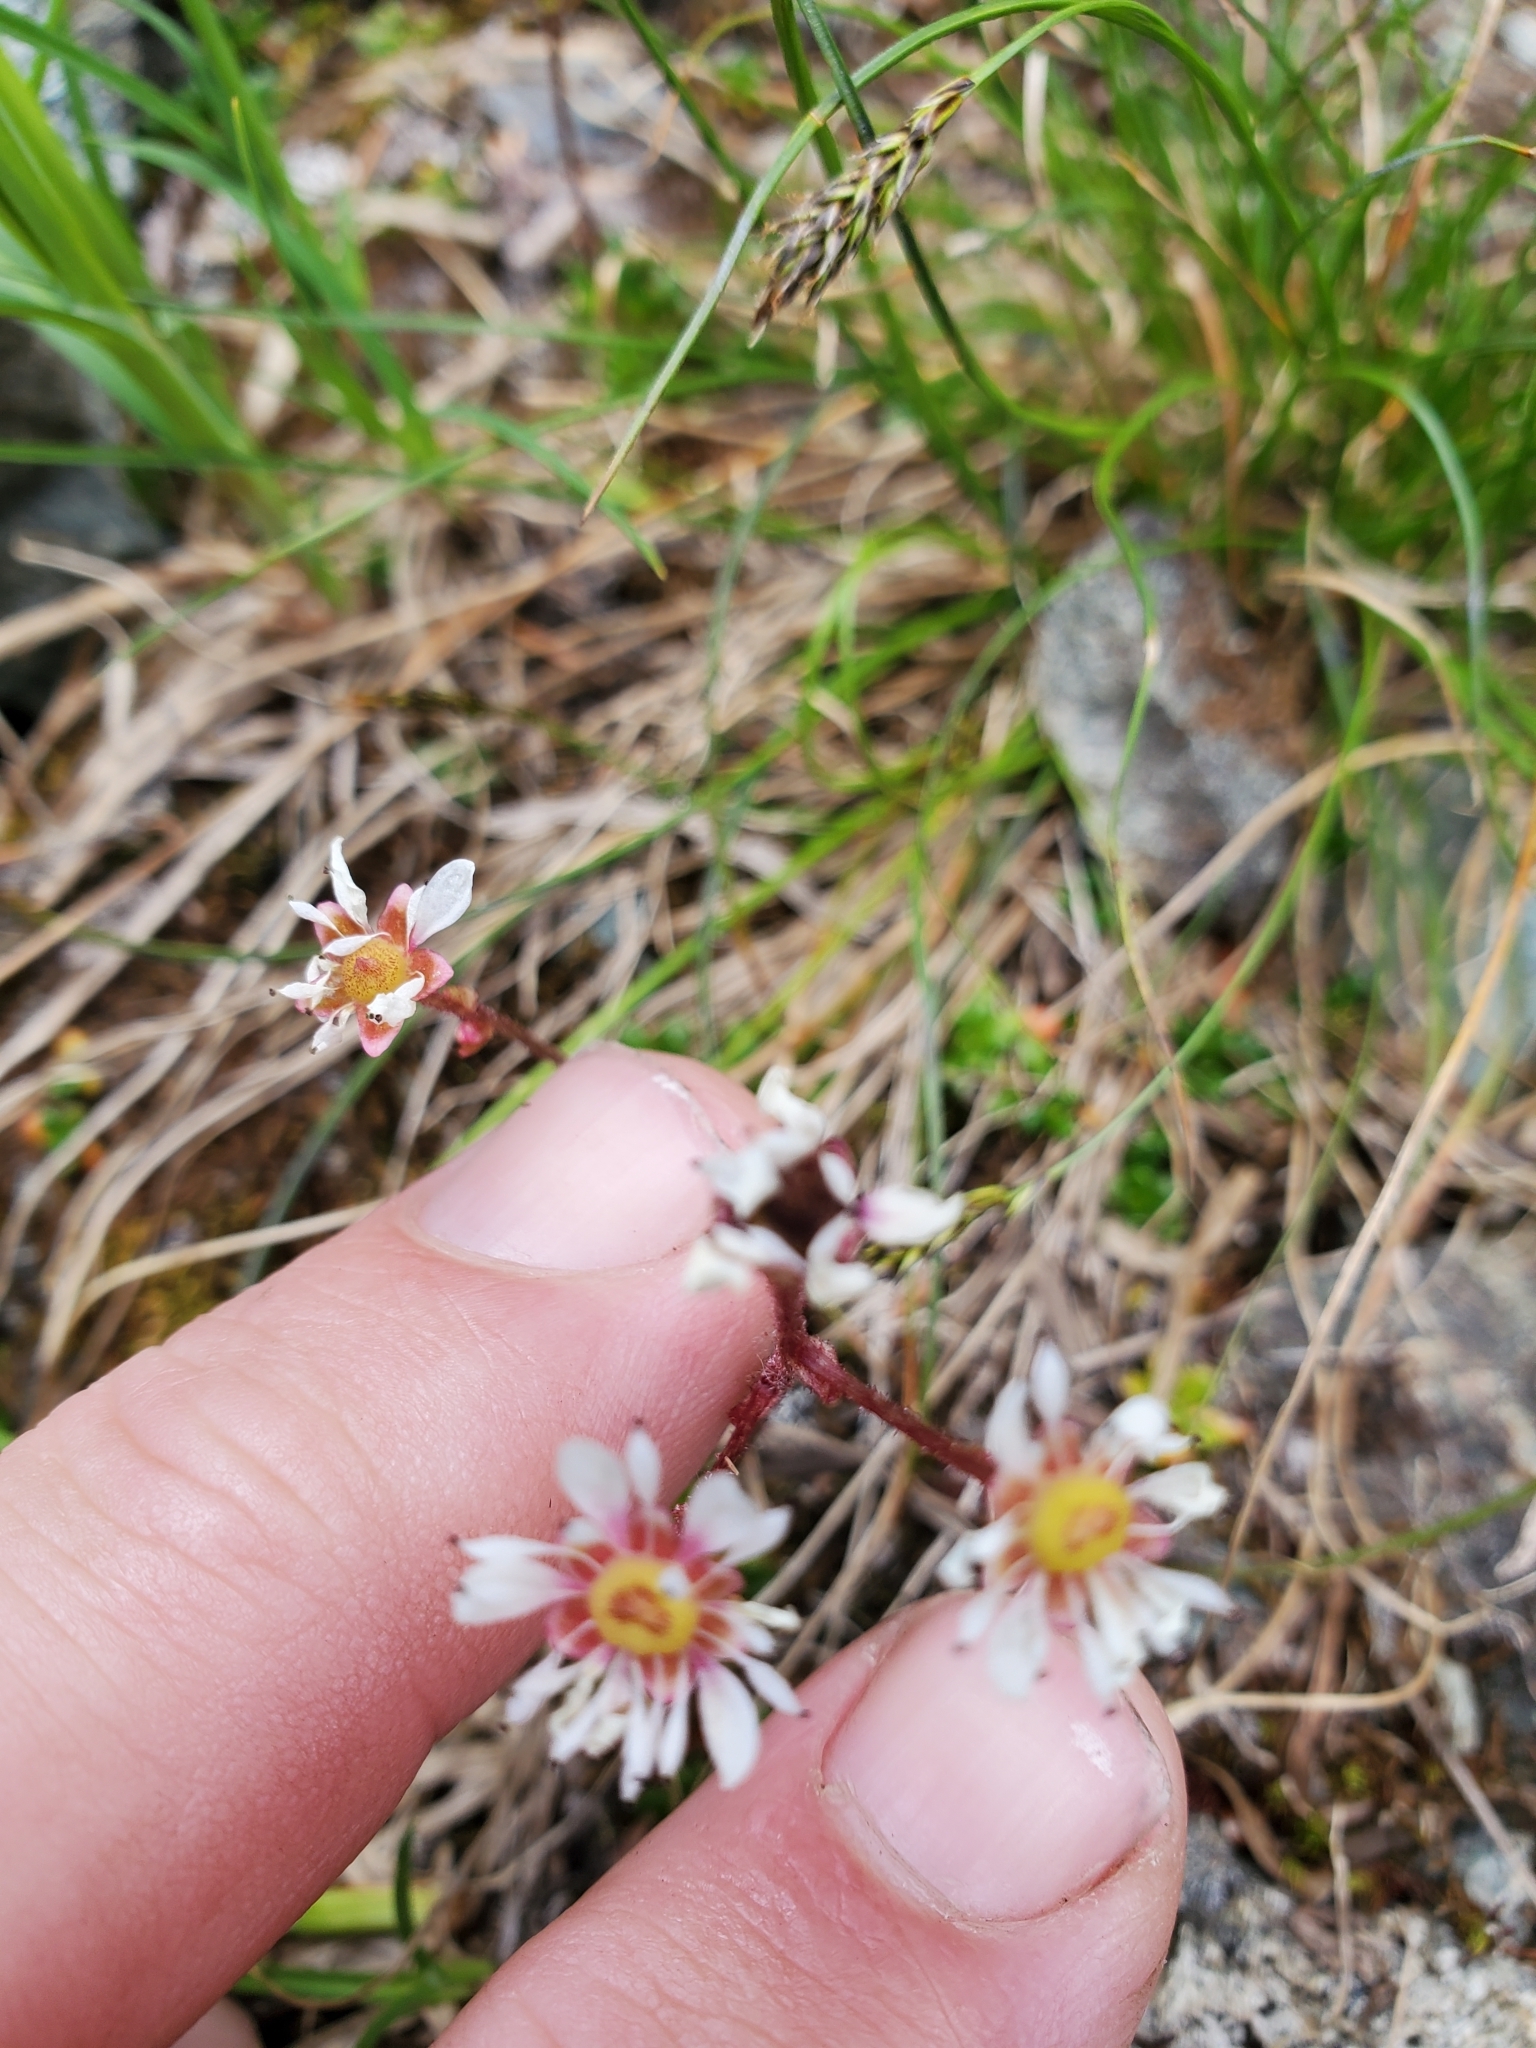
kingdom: Plantae
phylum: Tracheophyta
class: Magnoliopsida
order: Saxifragales
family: Saxifragaceae
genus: Micranthes
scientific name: Micranthes tolmiei
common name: Tolmie's saxifrage
